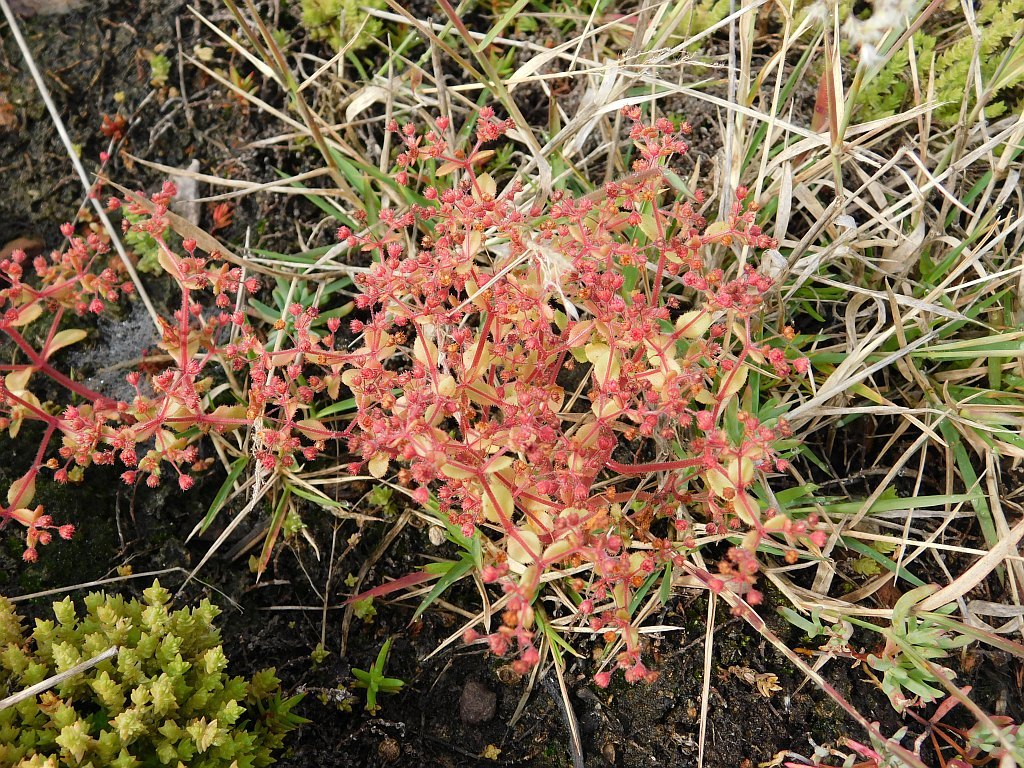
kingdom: Plantae
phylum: Tracheophyta
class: Magnoliopsida
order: Saxifragales
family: Crassulaceae
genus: Crassula
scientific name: Crassula strigosa
